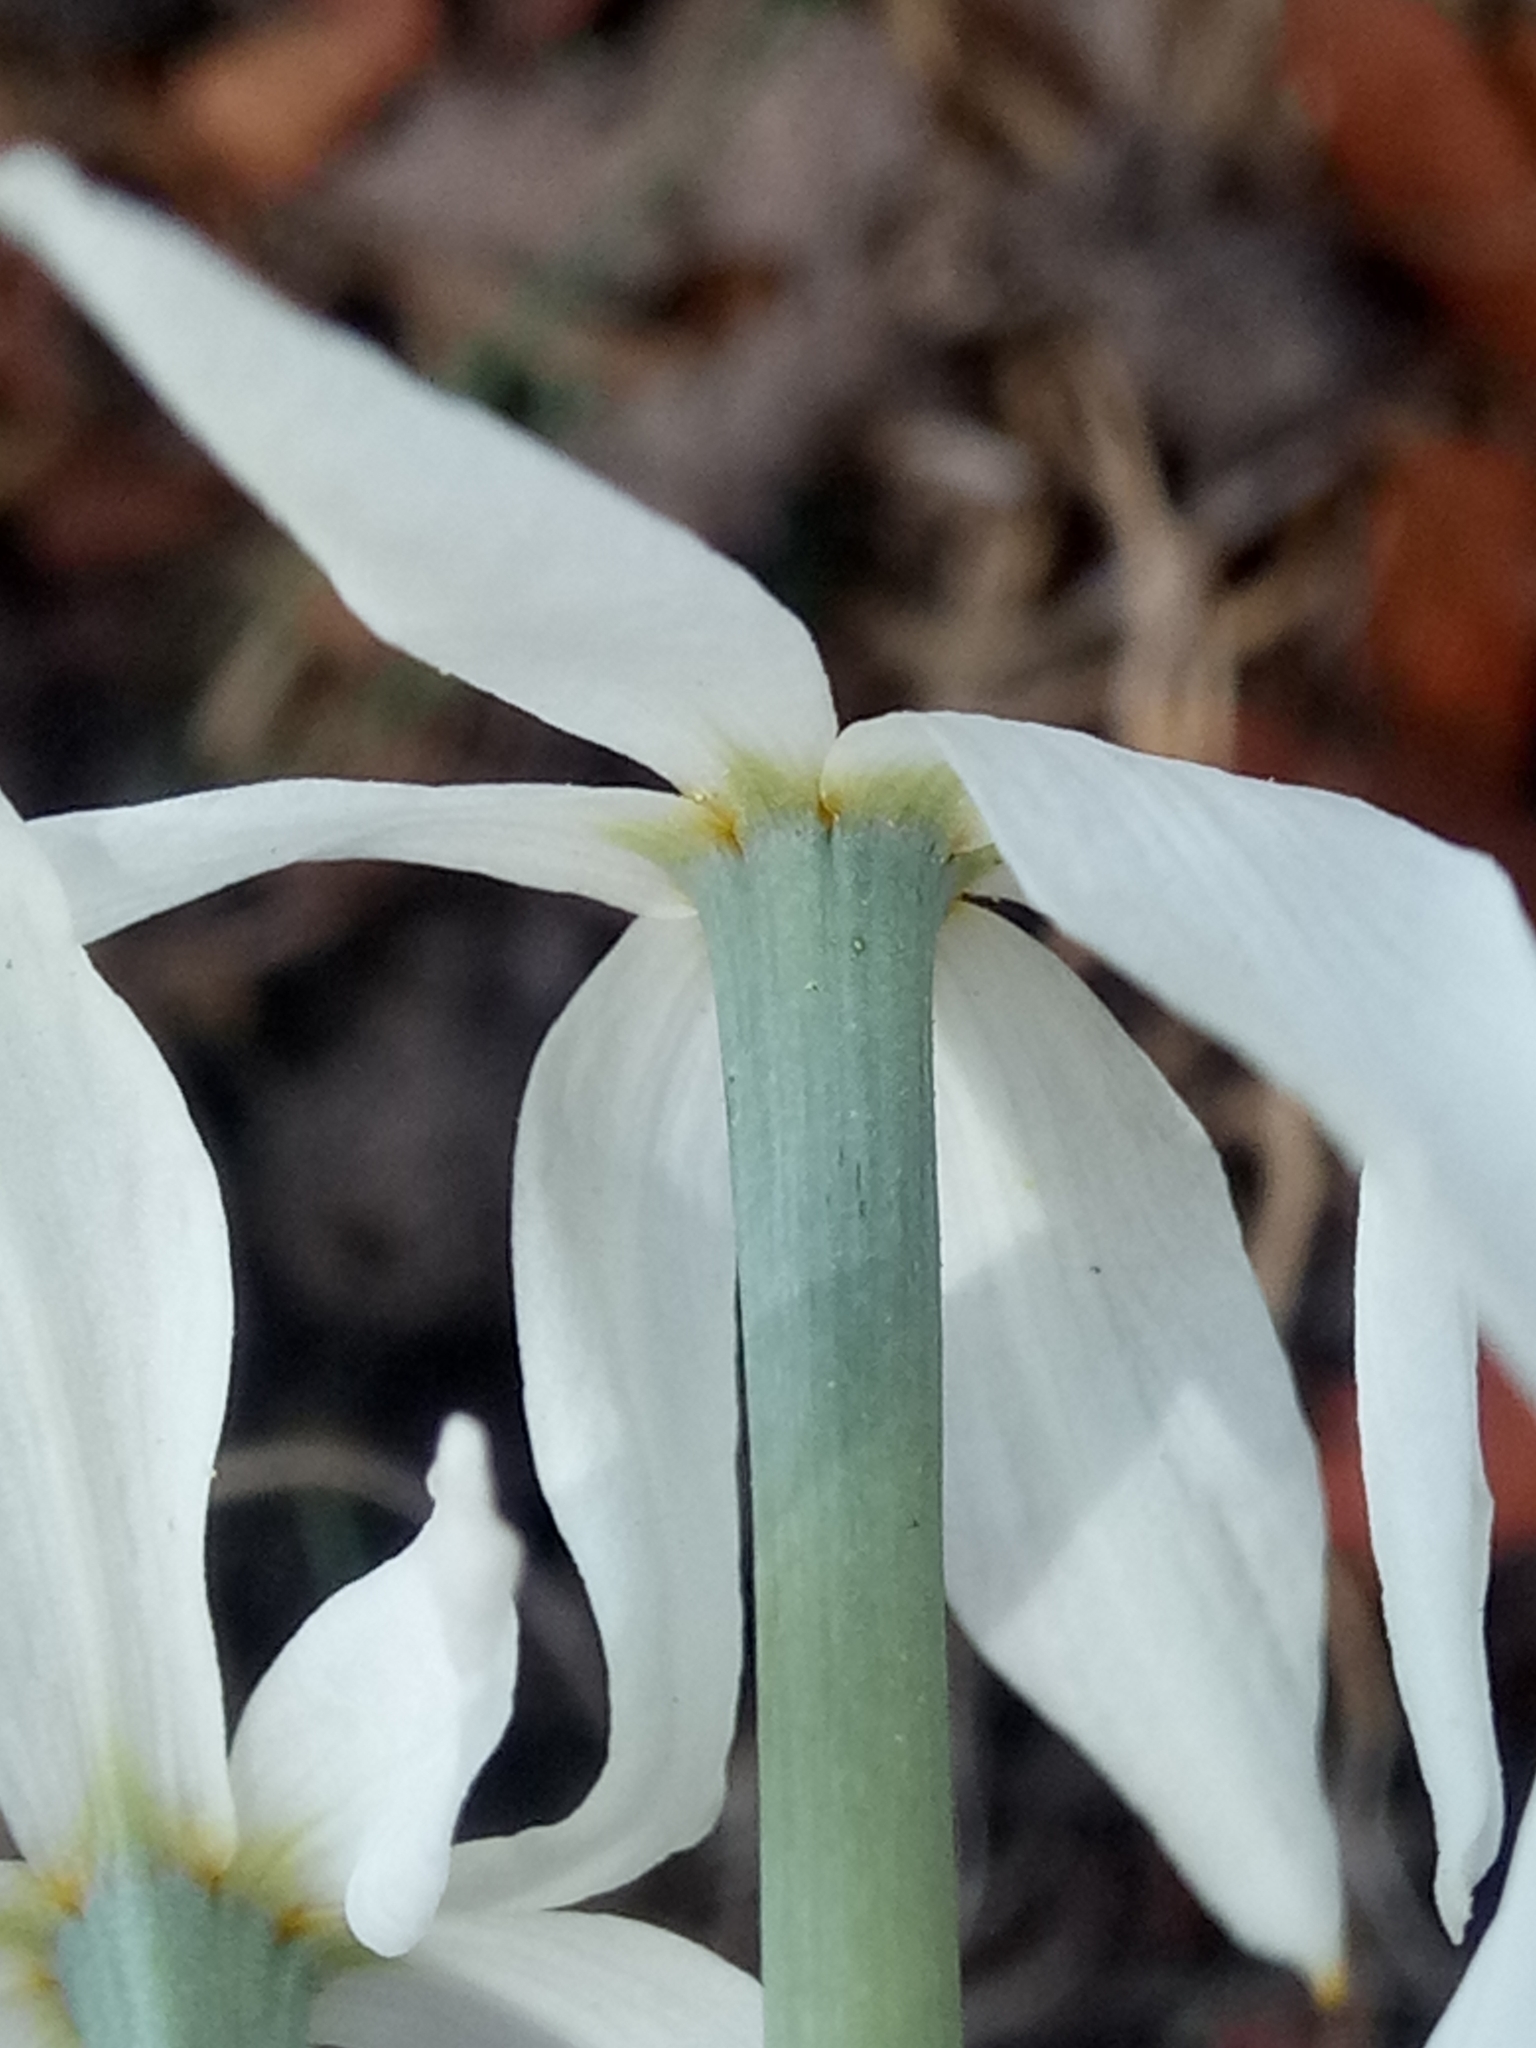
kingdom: Plantae
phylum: Tracheophyta
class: Liliopsida
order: Asparagales
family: Amaryllidaceae
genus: Narcissus
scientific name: Narcissus obsoletus
